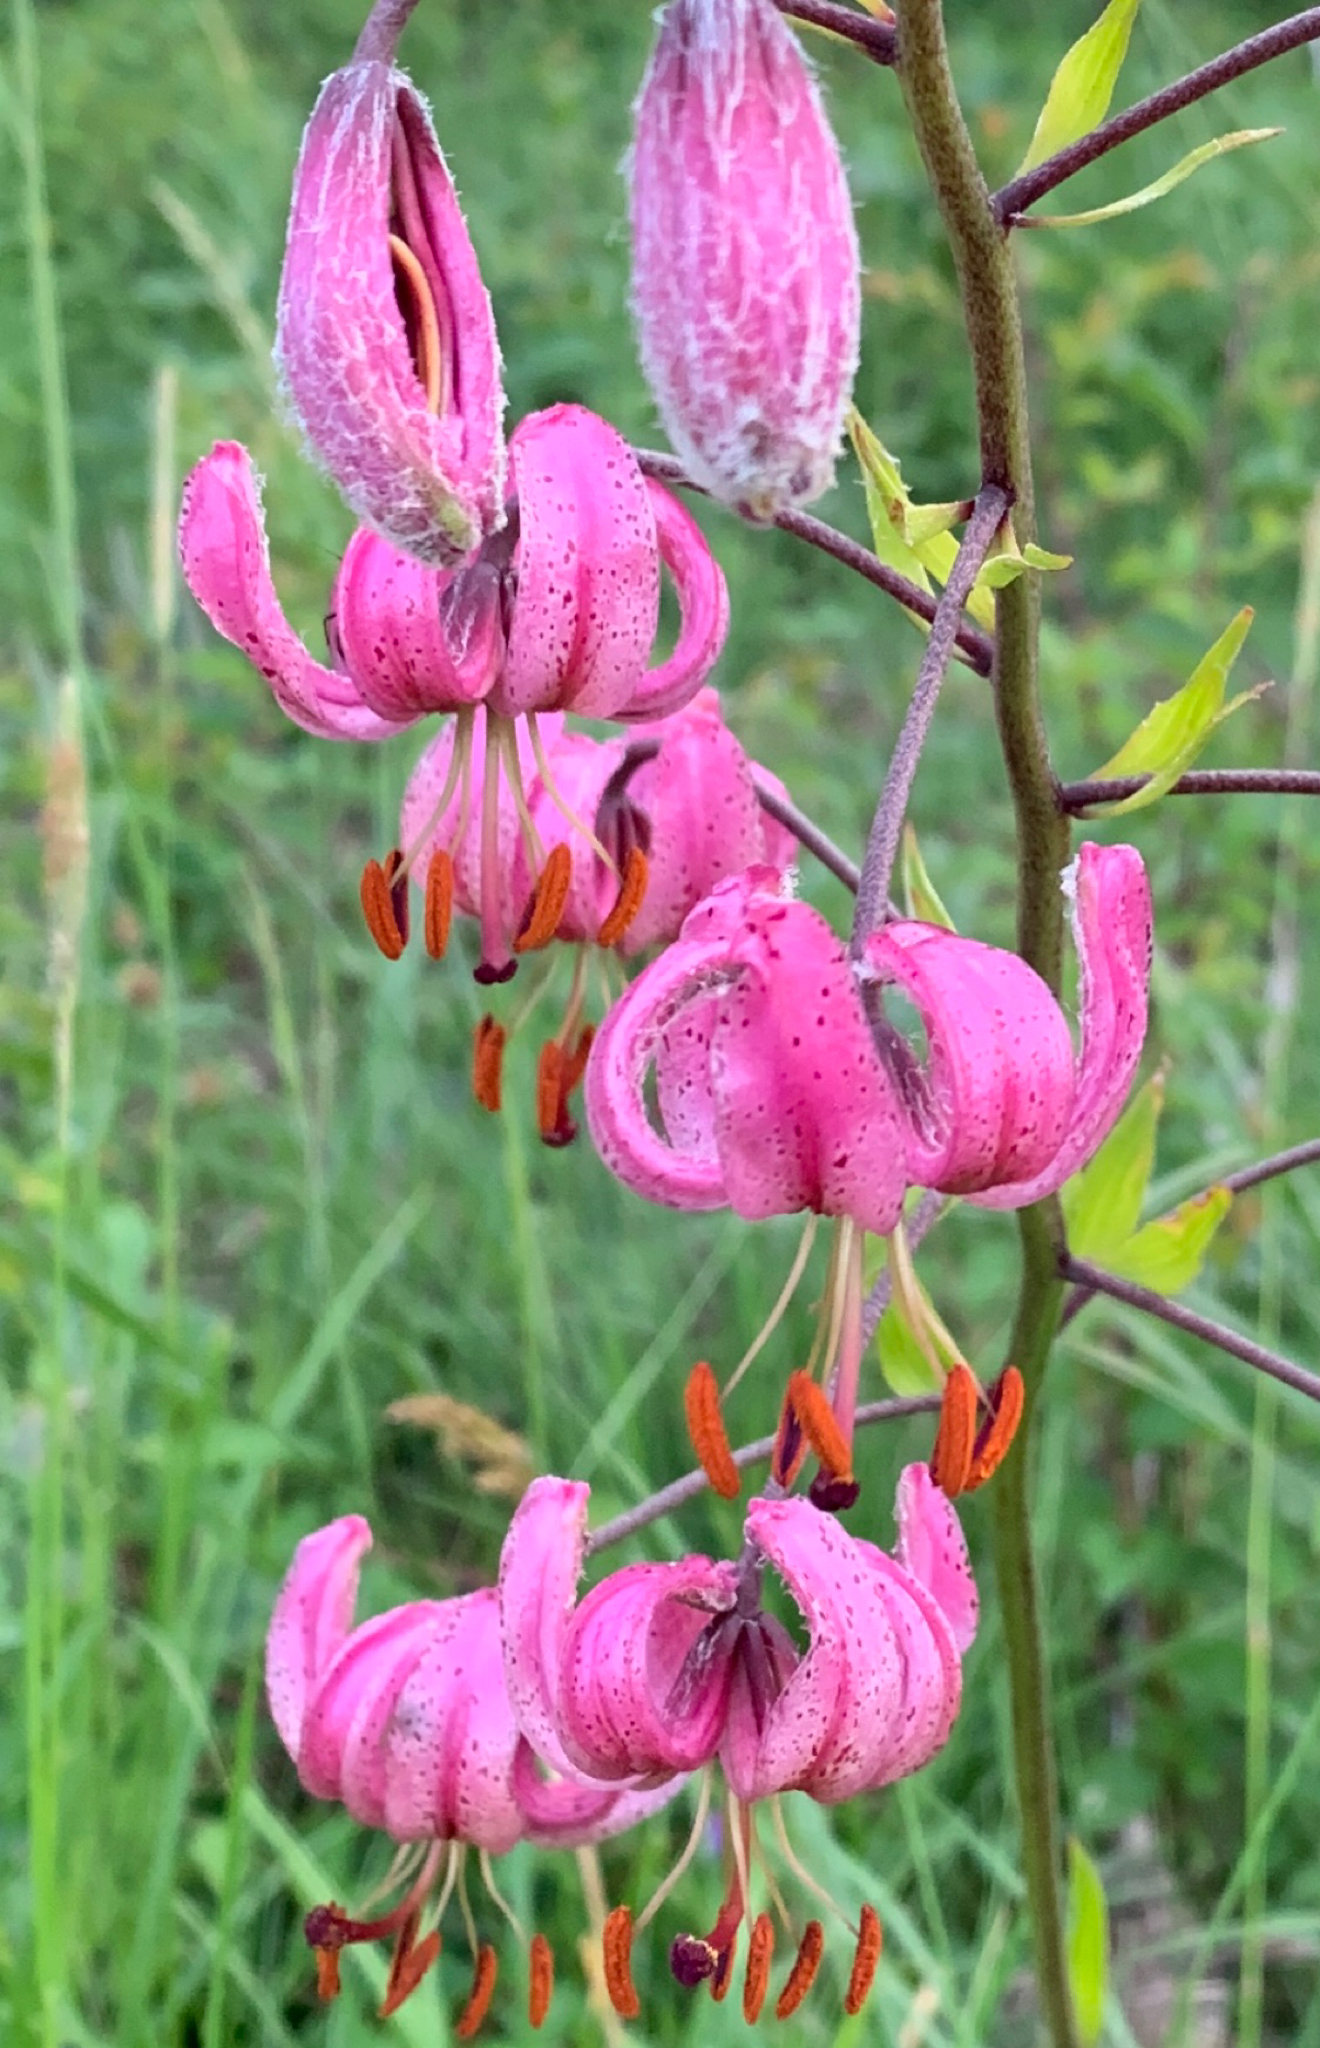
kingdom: Plantae
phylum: Tracheophyta
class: Liliopsida
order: Liliales
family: Liliaceae
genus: Lilium
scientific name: Lilium martagon
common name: Martagon lily
